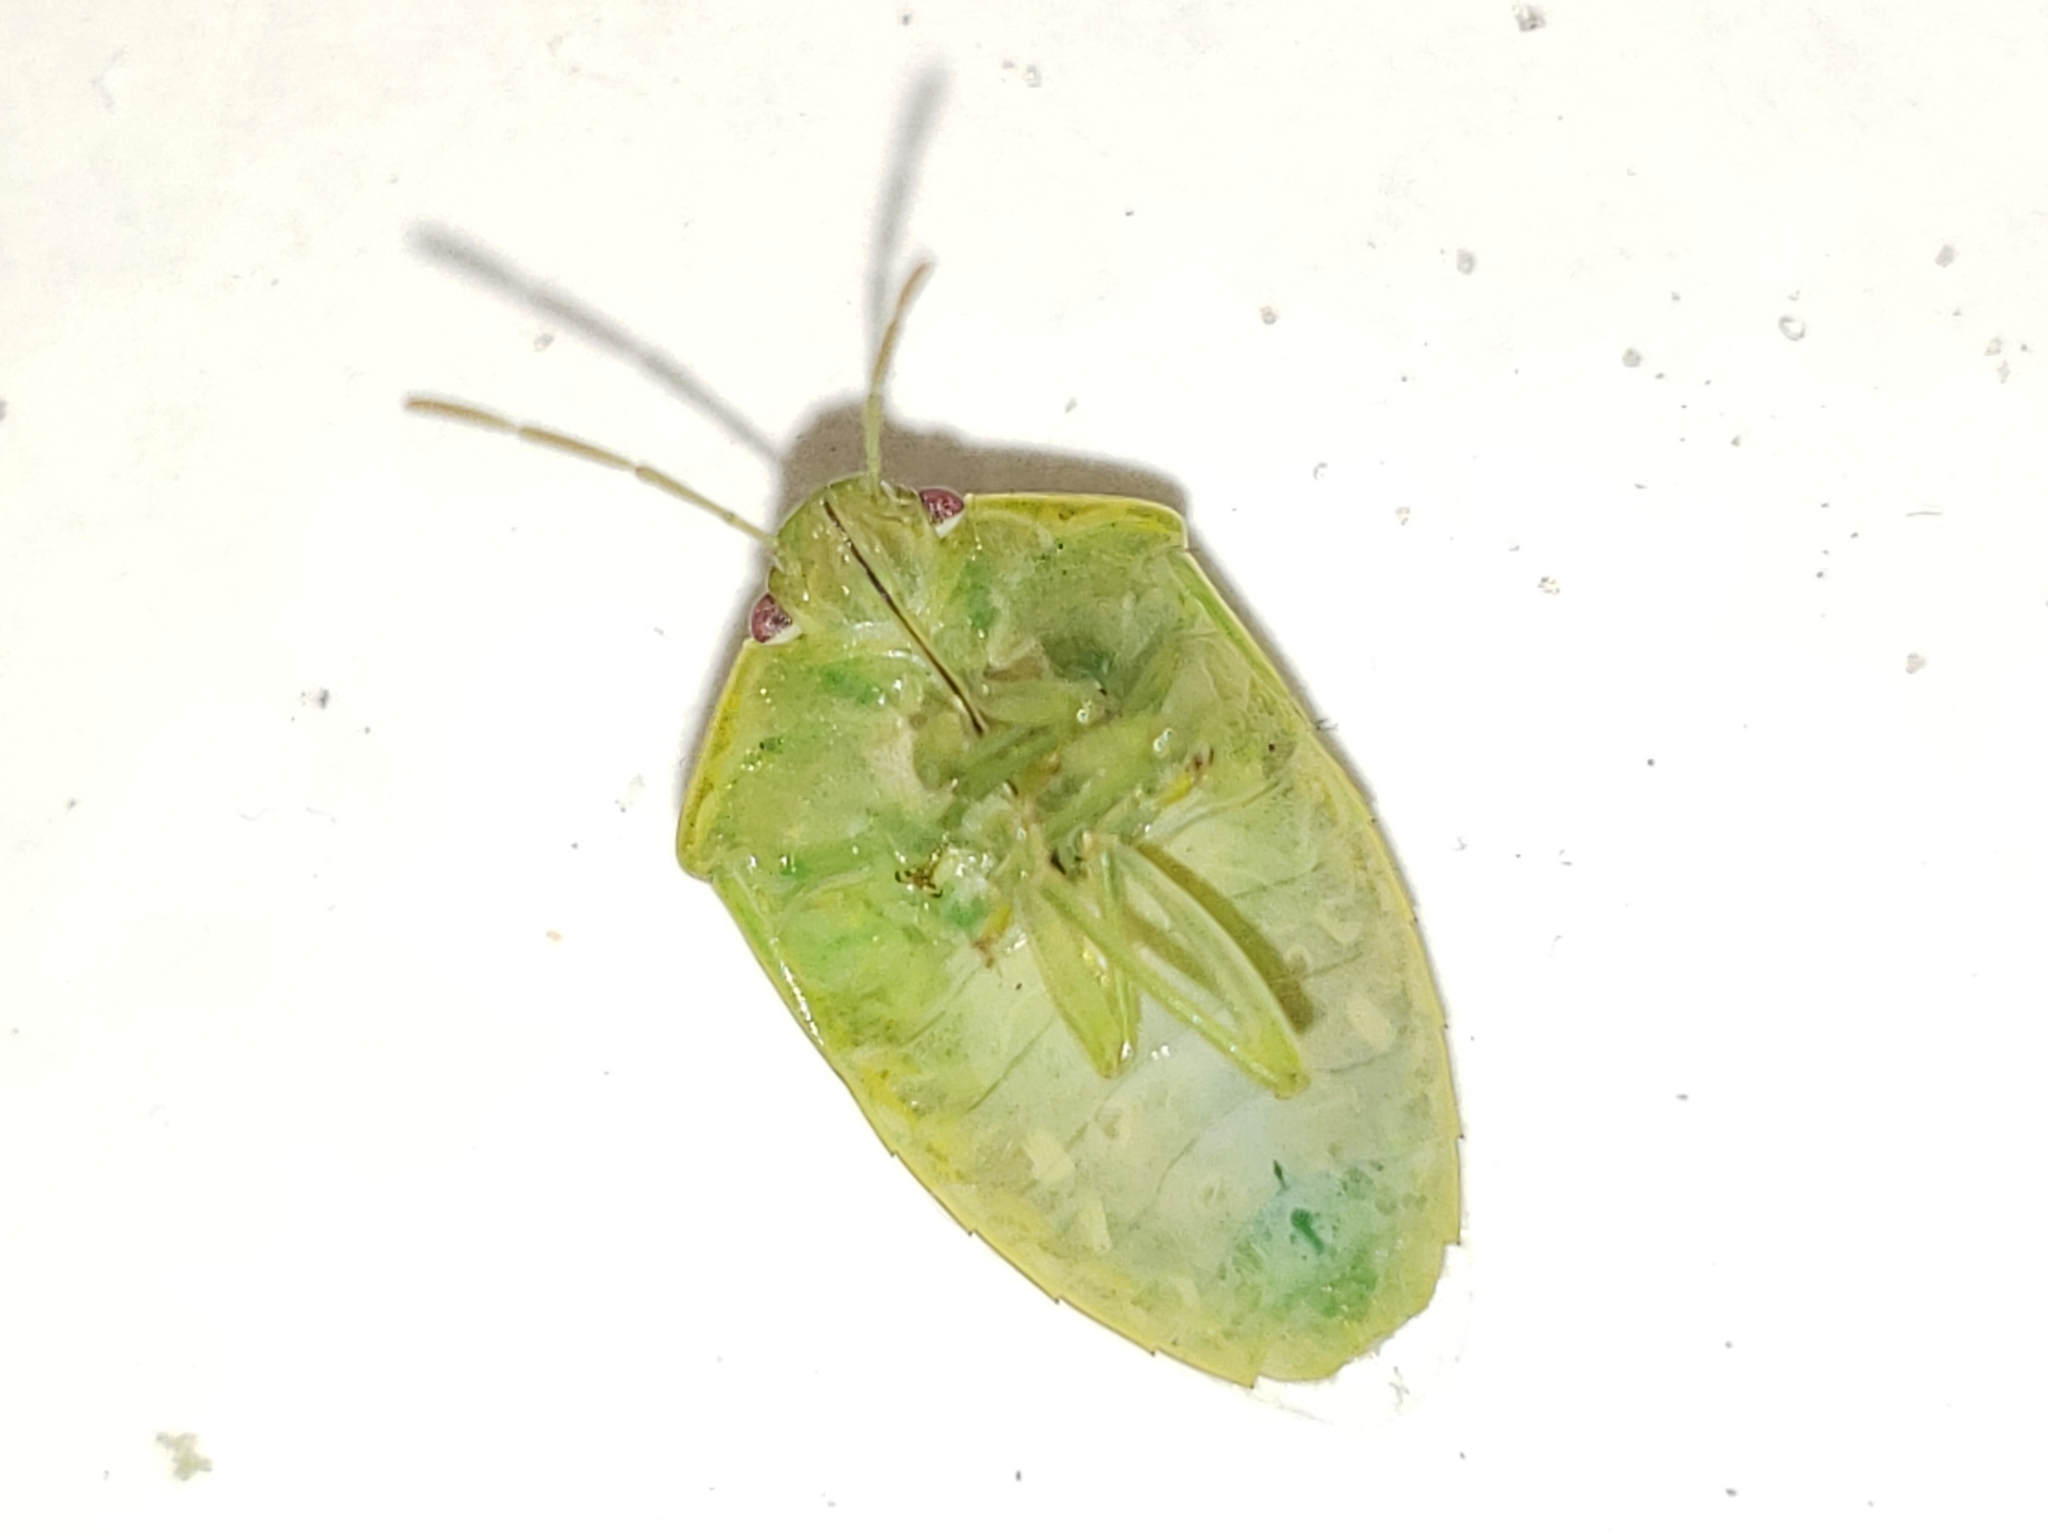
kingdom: Animalia
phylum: Arthropoda
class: Insecta
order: Hemiptera
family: Pentatomidae
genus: Banasa
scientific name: Banasa herbacea
